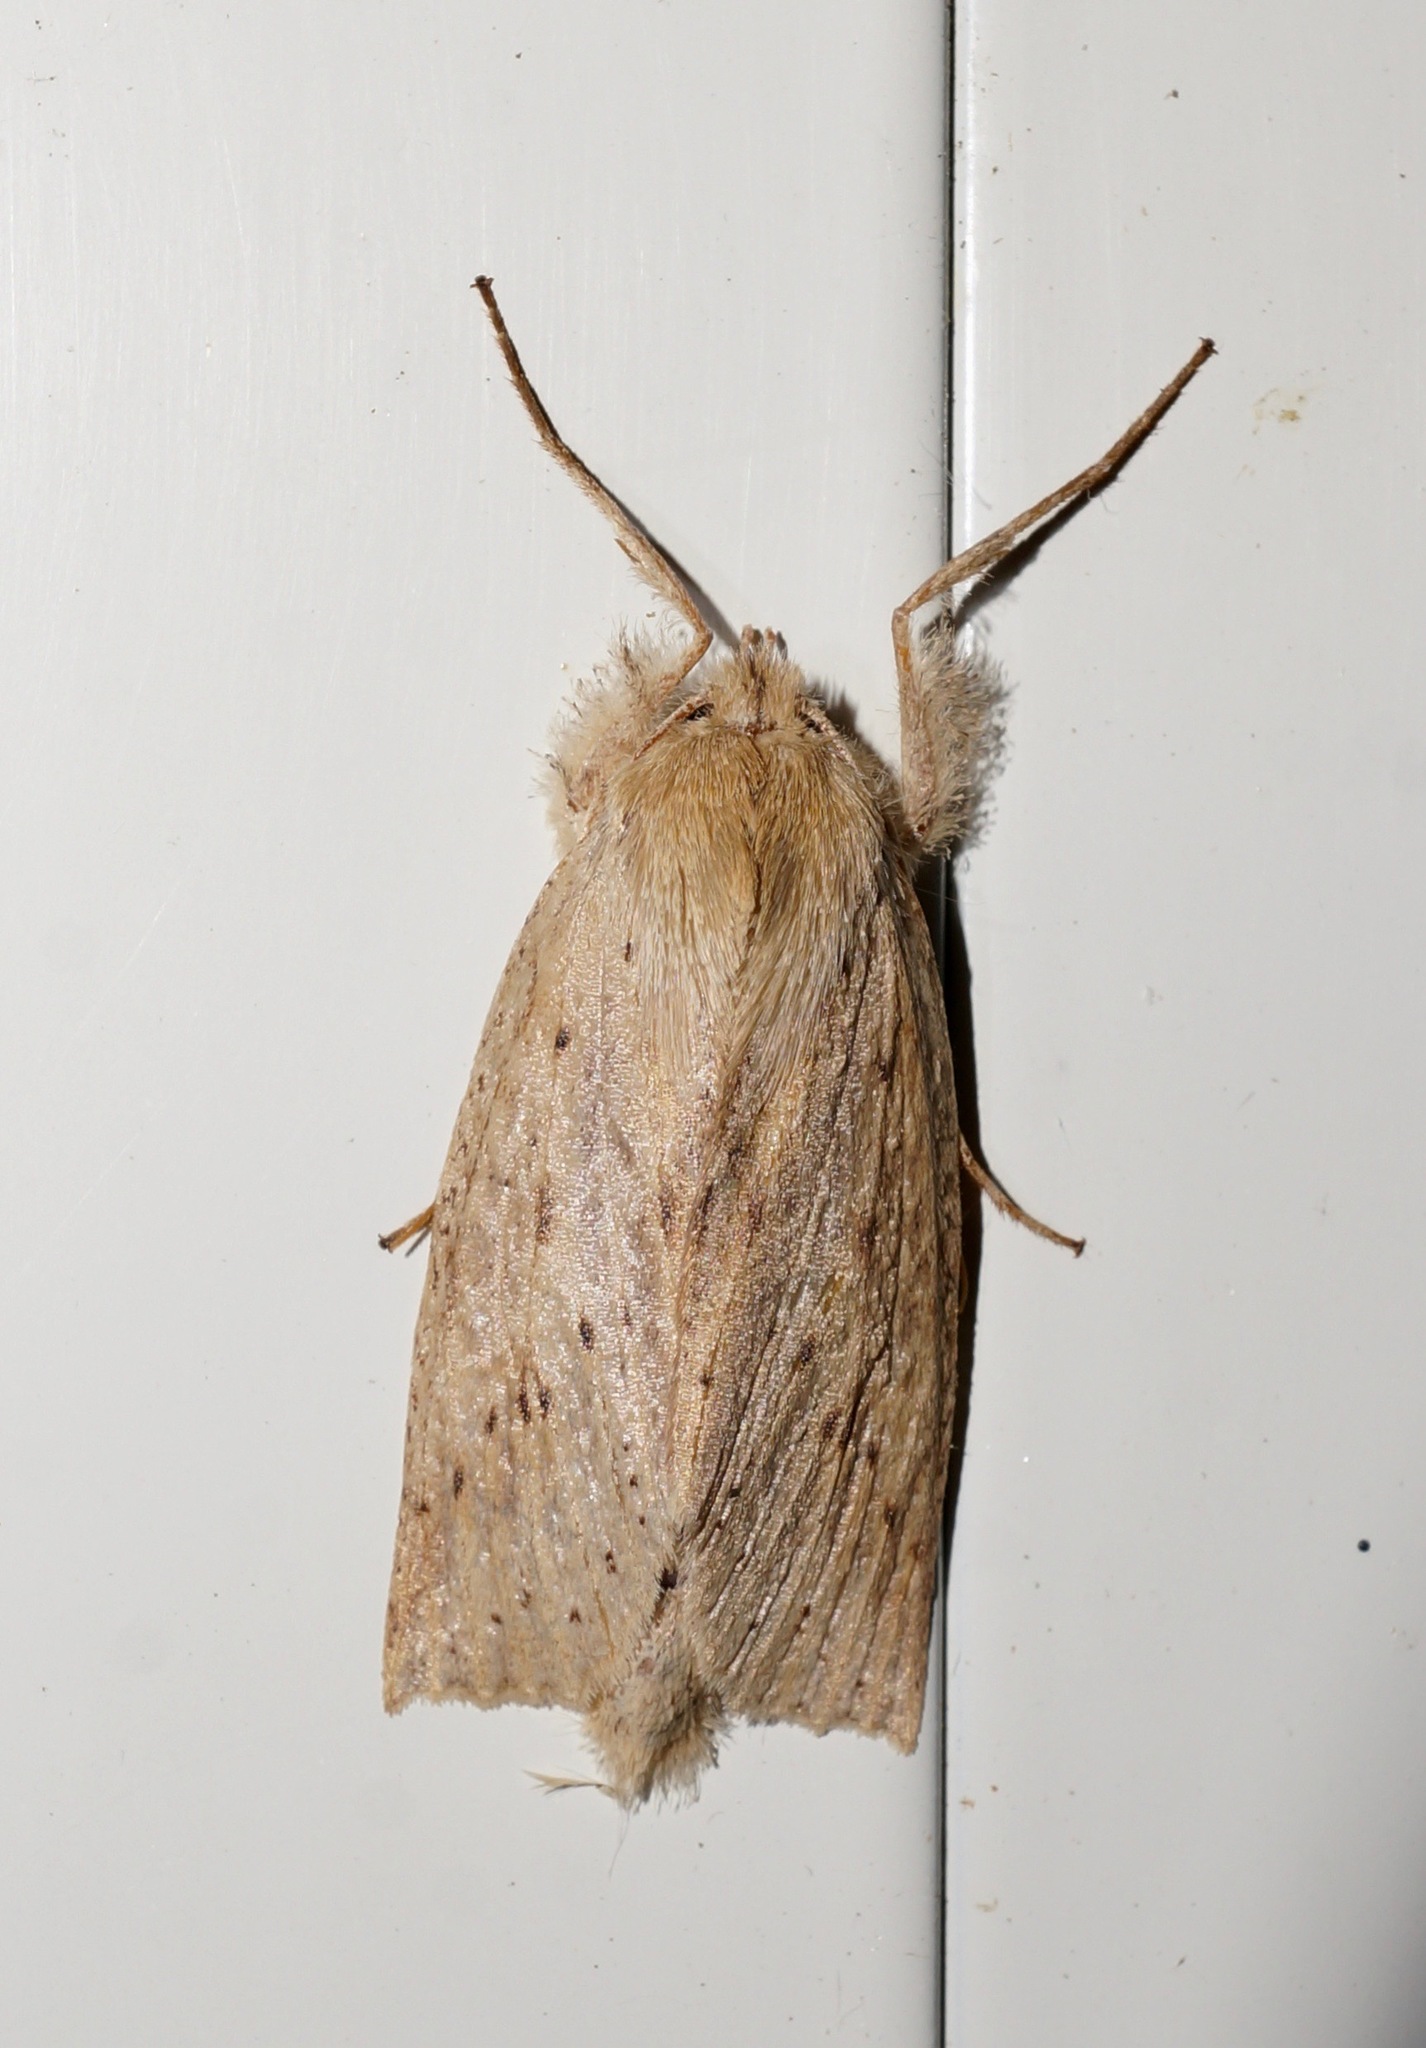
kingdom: Animalia
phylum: Arthropoda
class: Insecta
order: Lepidoptera
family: Geometridae
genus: Declana
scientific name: Declana leptomera
